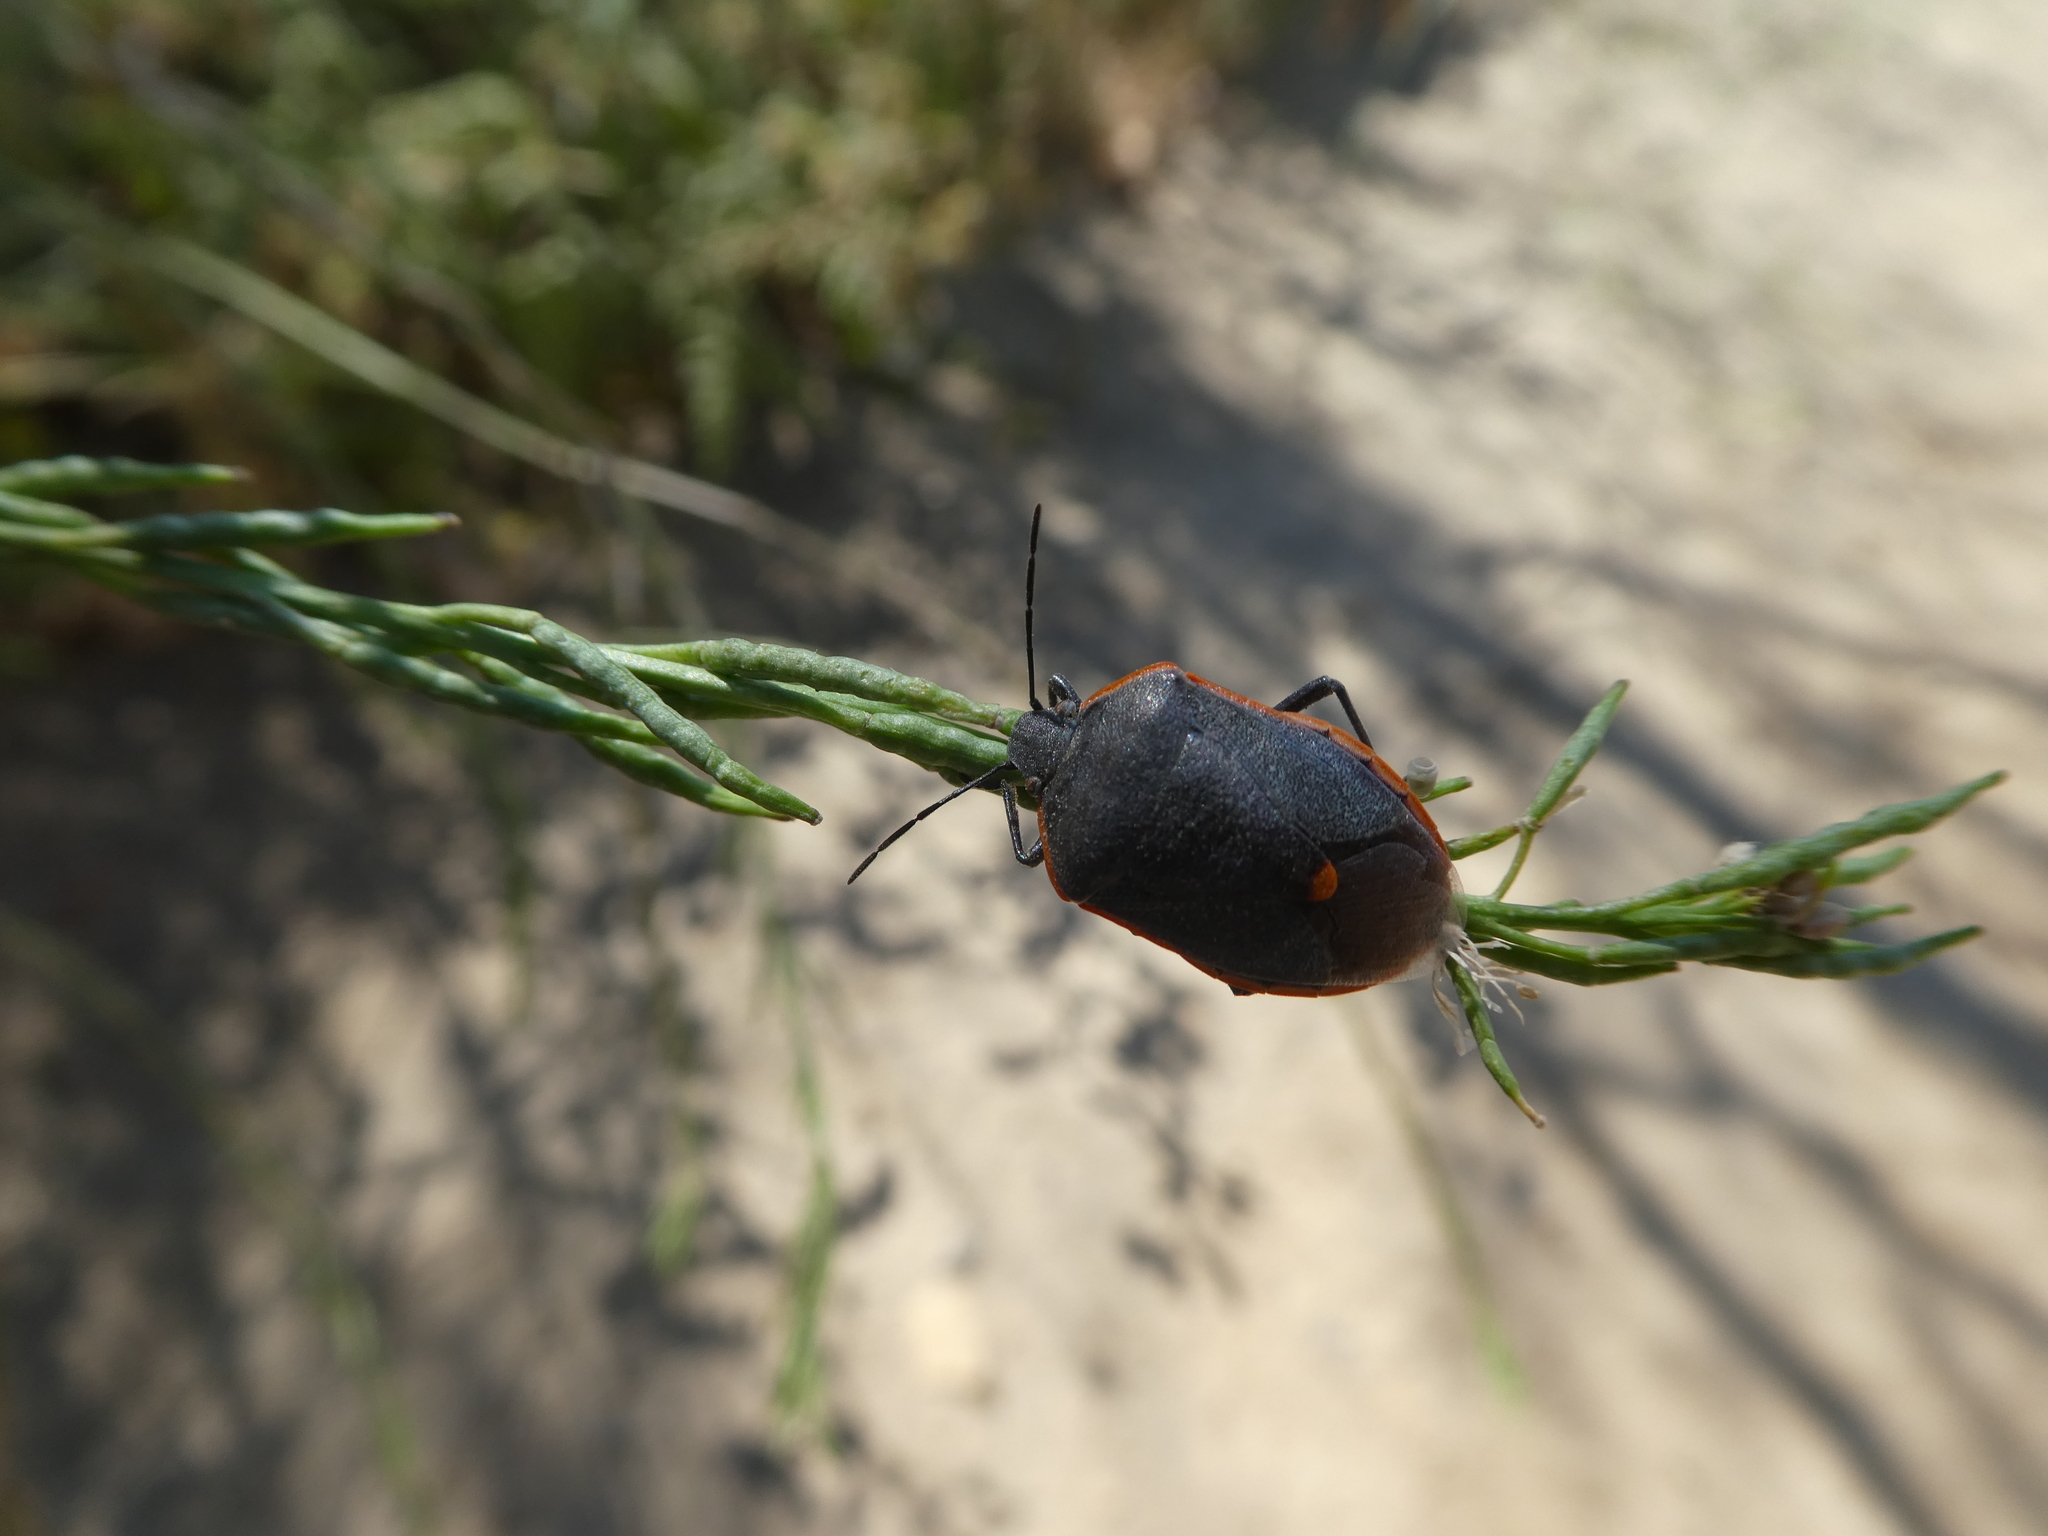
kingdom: Animalia
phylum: Arthropoda
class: Insecta
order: Hemiptera
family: Pentatomidae
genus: Chlorochroa
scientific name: Chlorochroa ligata
